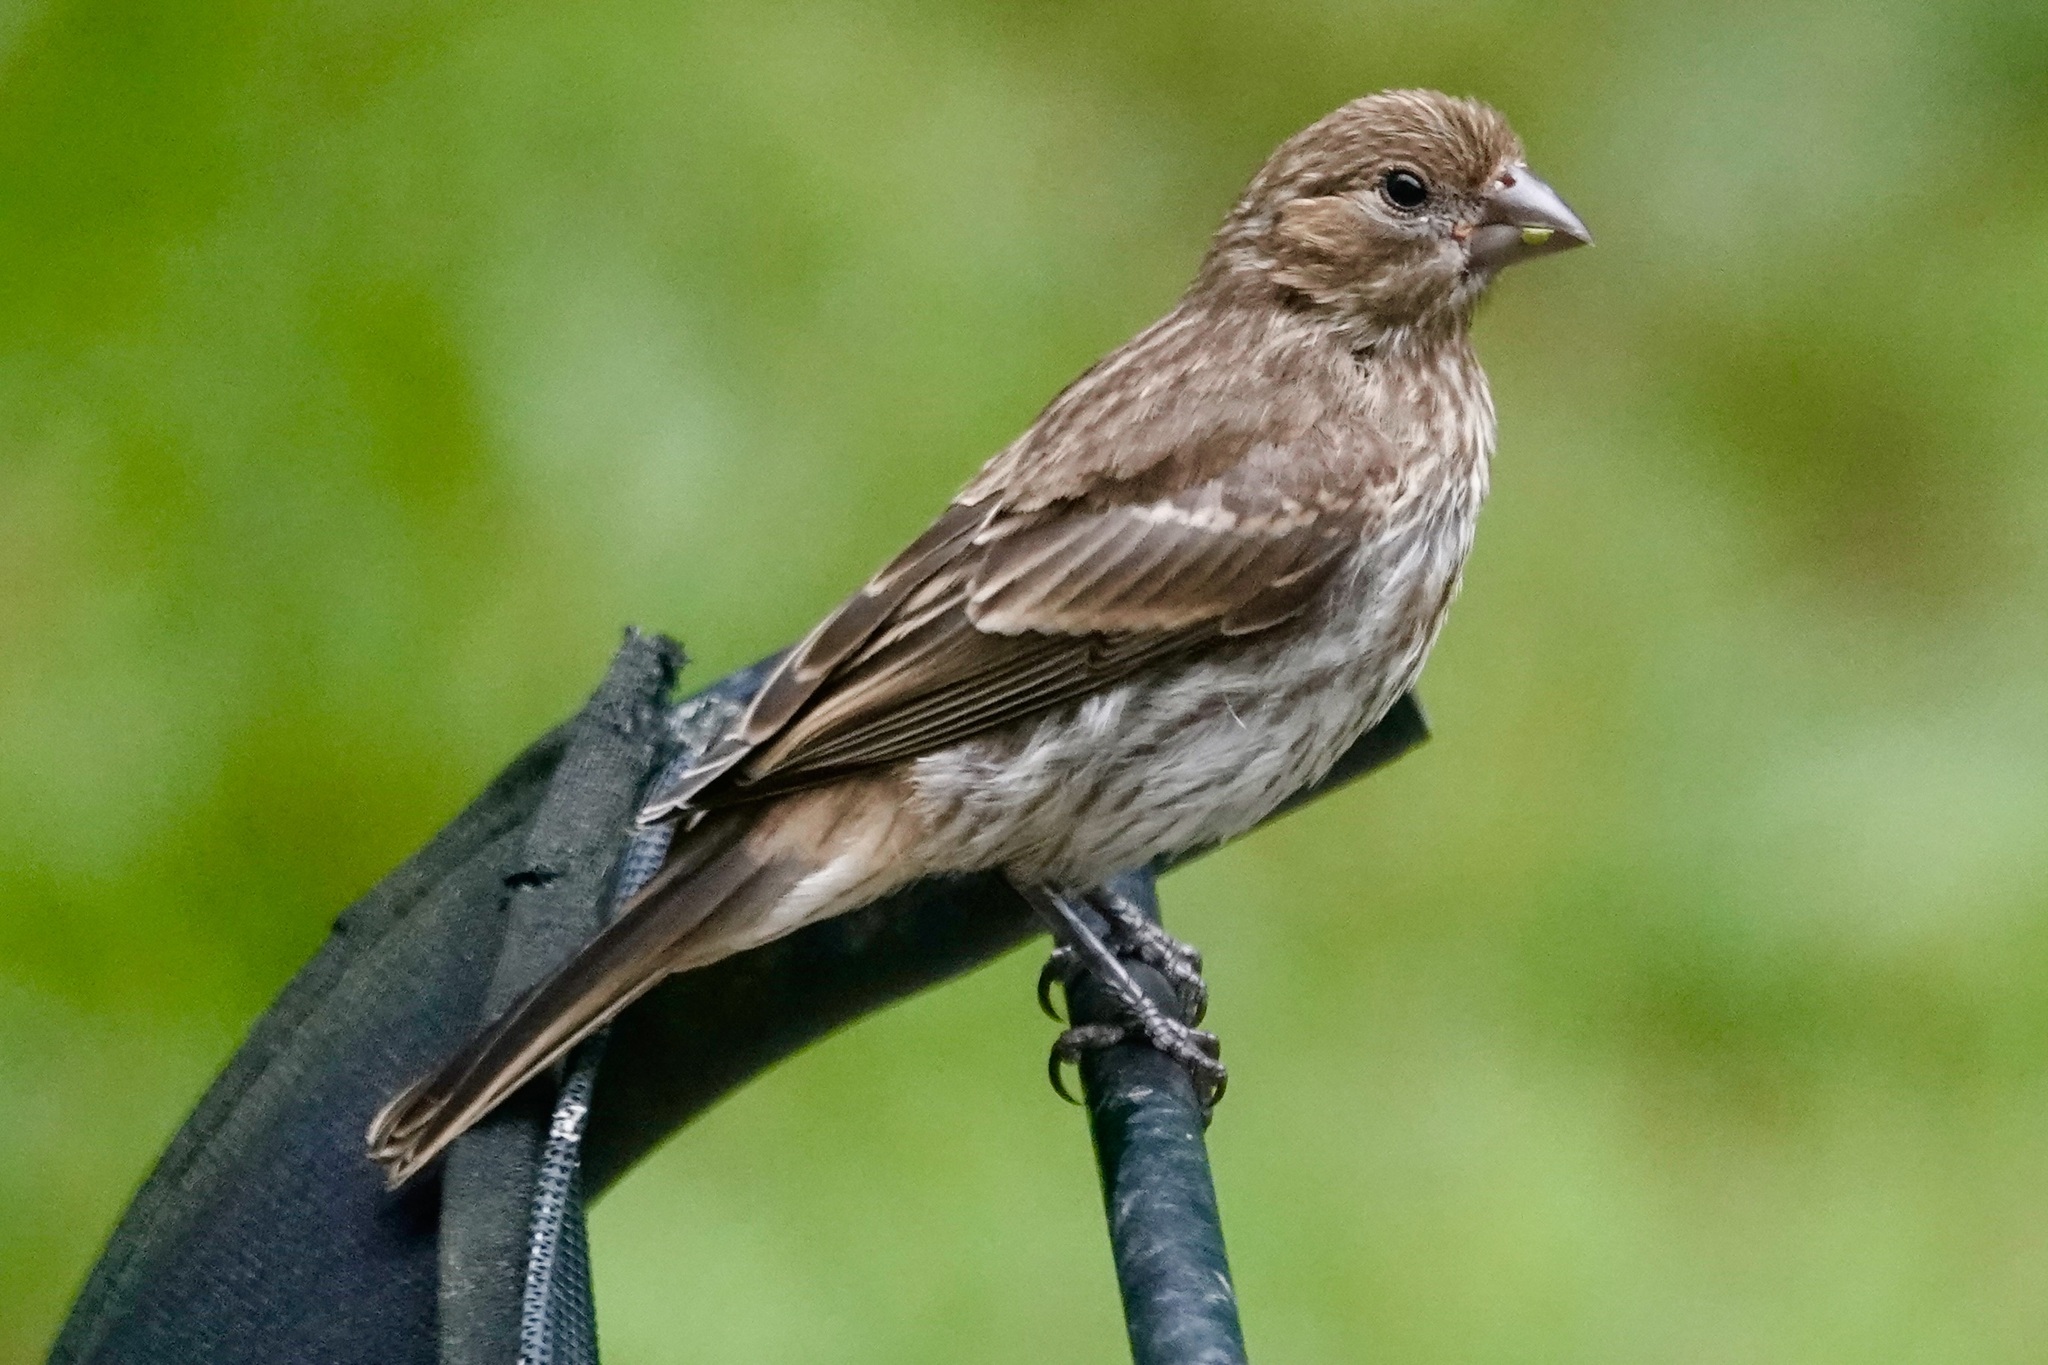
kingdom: Animalia
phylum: Chordata
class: Aves
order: Passeriformes
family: Fringillidae
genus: Haemorhous
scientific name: Haemorhous mexicanus
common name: House finch
